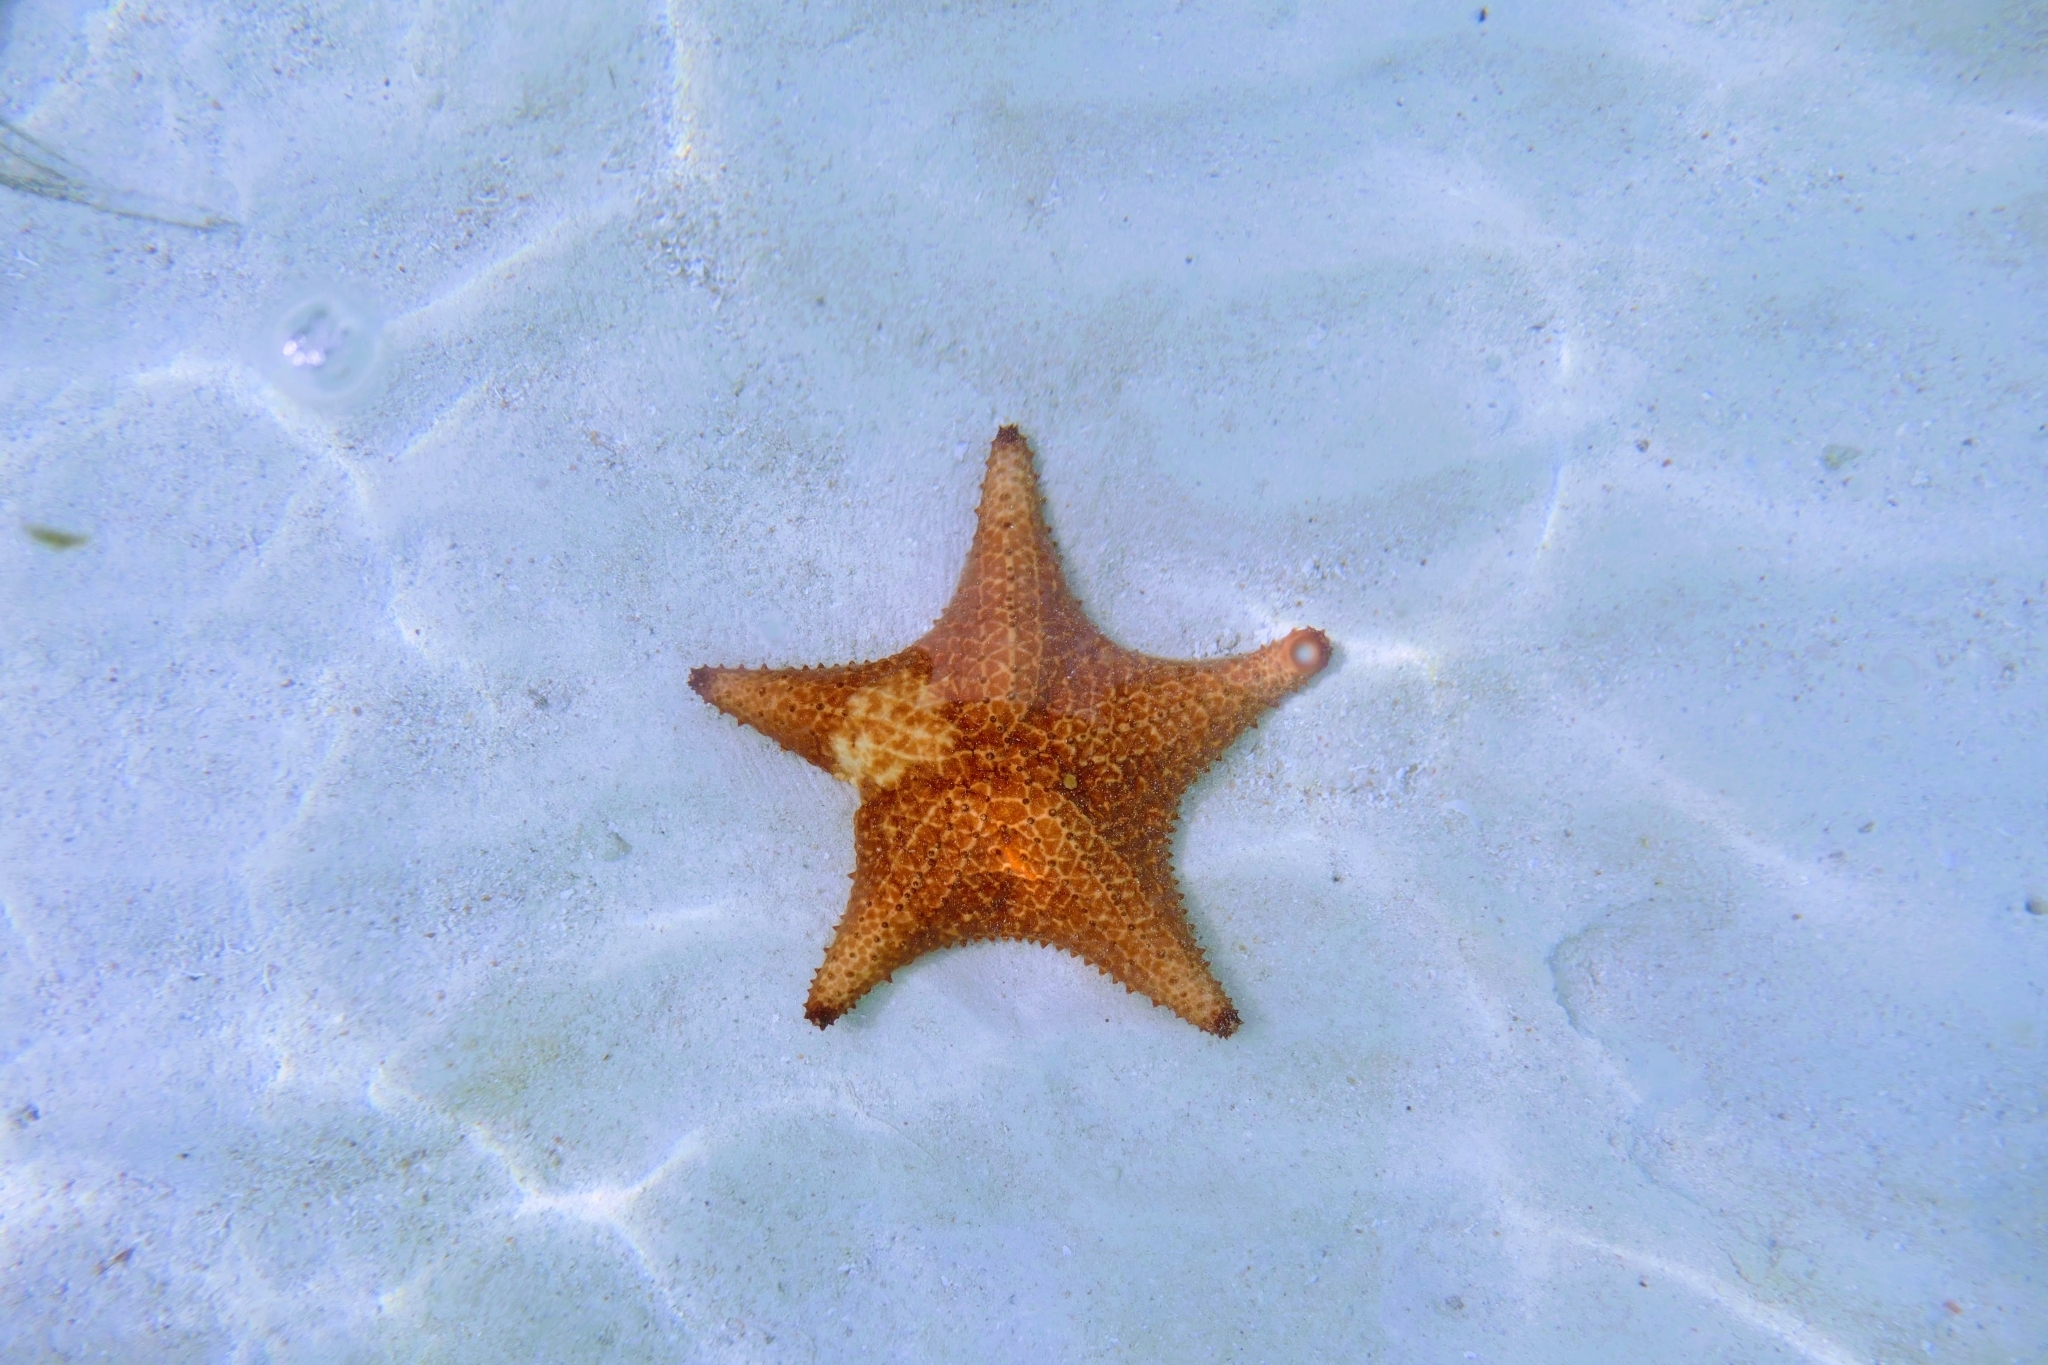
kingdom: Animalia
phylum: Echinodermata
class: Asteroidea
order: Valvatida
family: Oreasteridae
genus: Oreaster
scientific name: Oreaster reticulatus
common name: Cushion sea star
